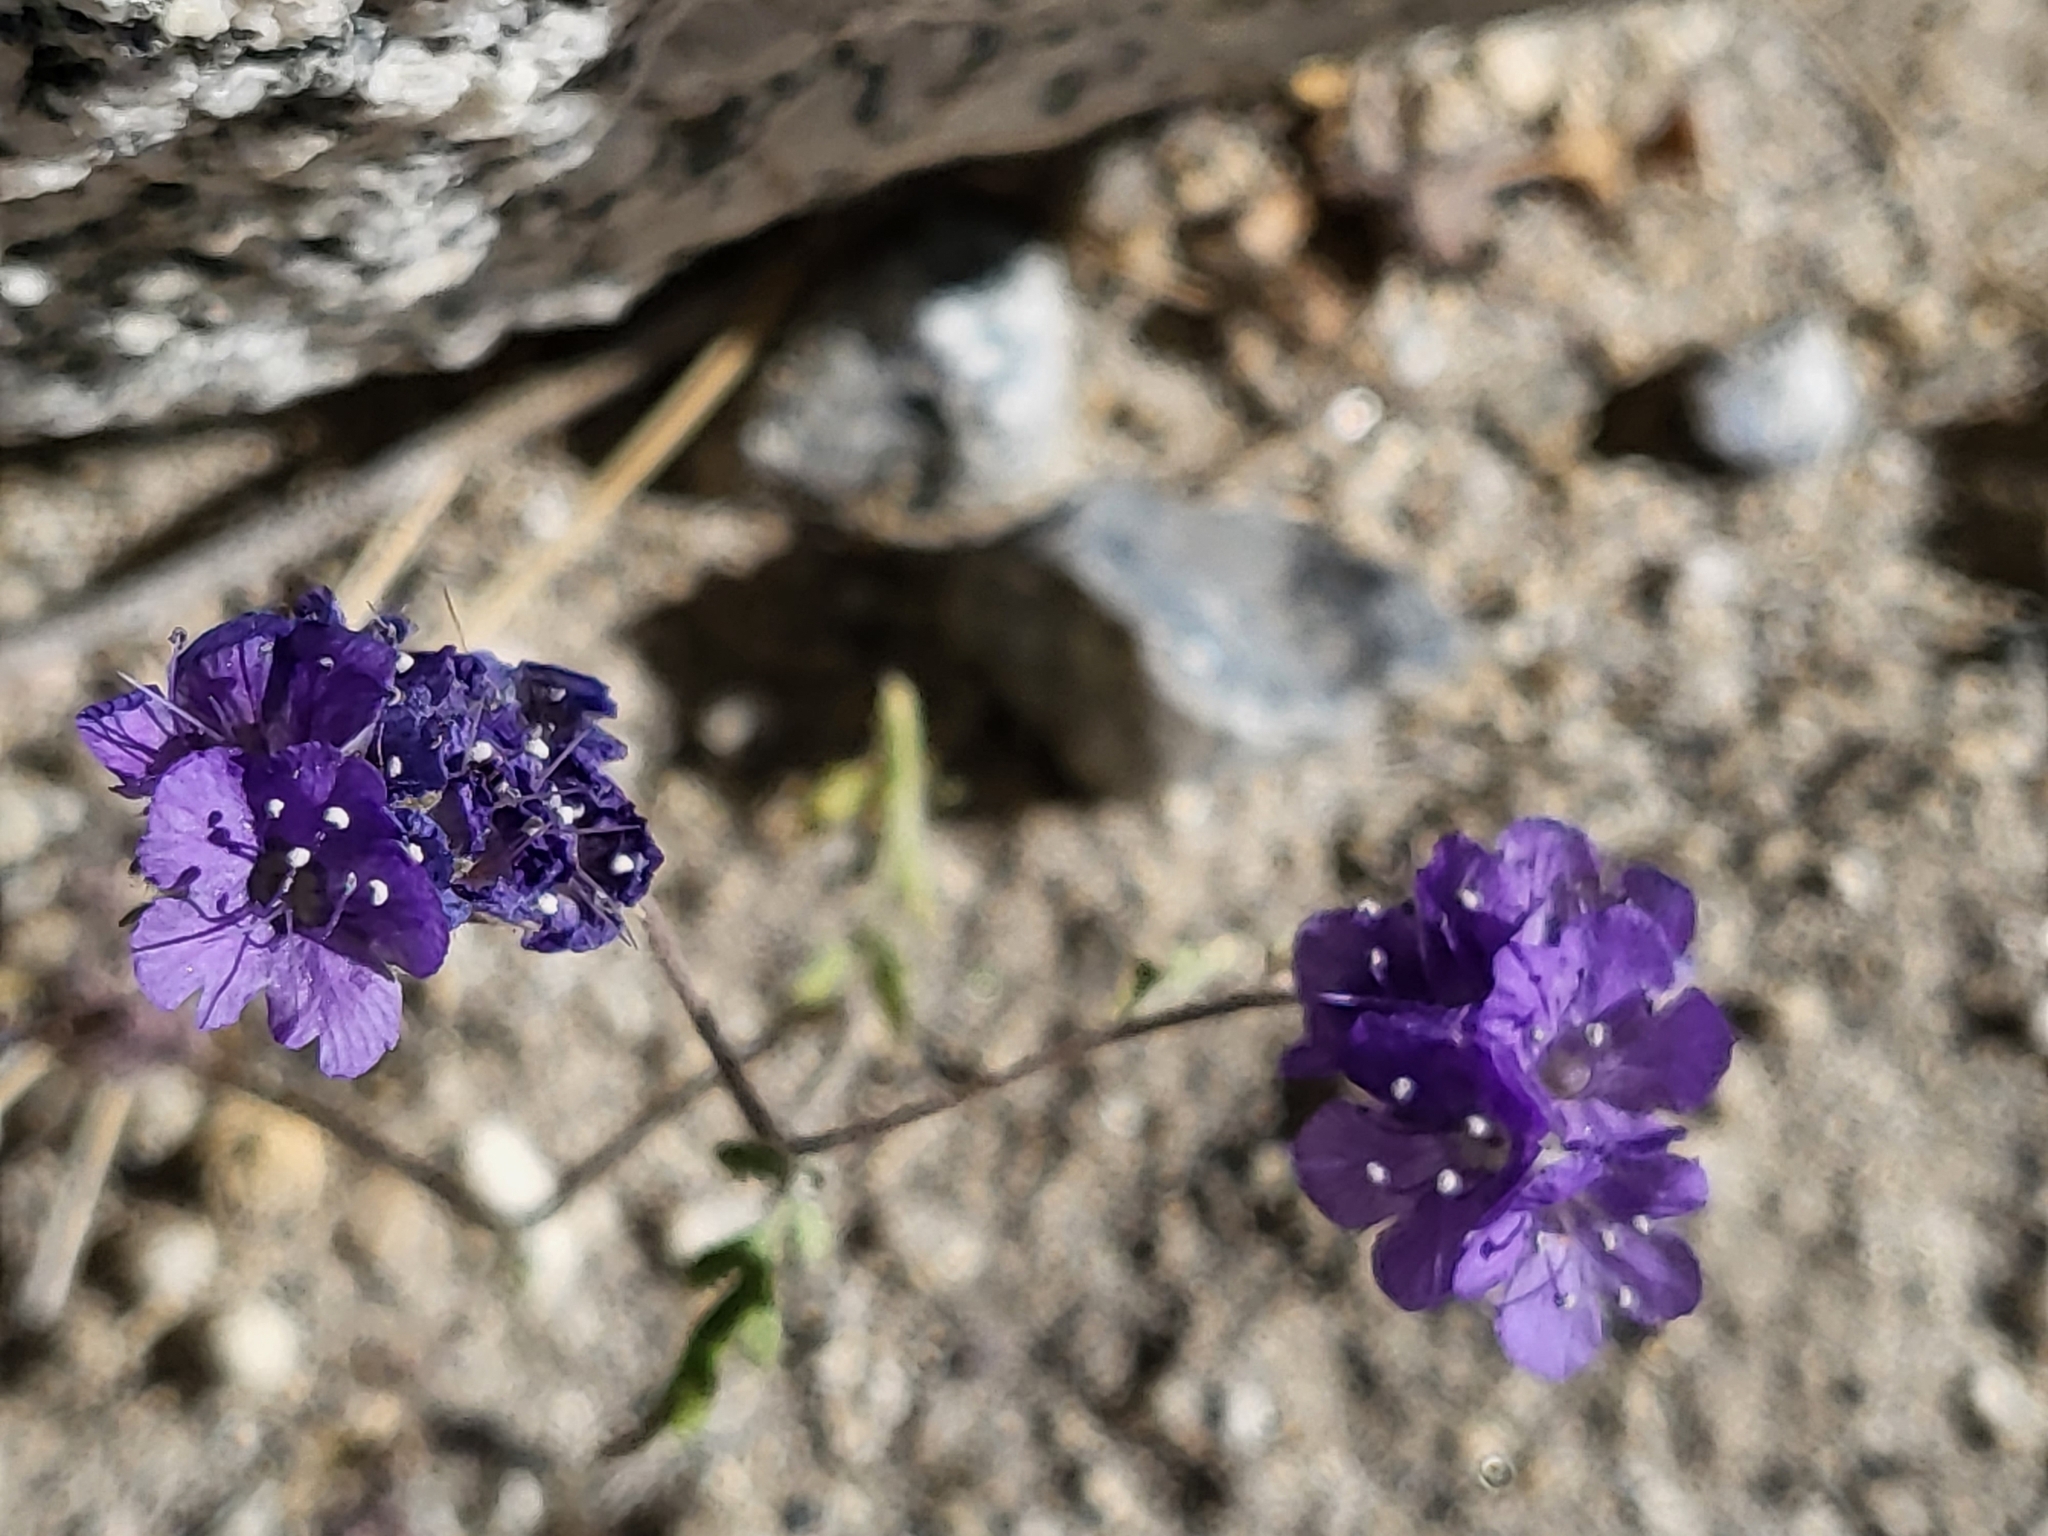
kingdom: Plantae
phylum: Tracheophyta
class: Magnoliopsida
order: Boraginales
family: Hydrophyllaceae
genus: Phacelia
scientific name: Phacelia distans
